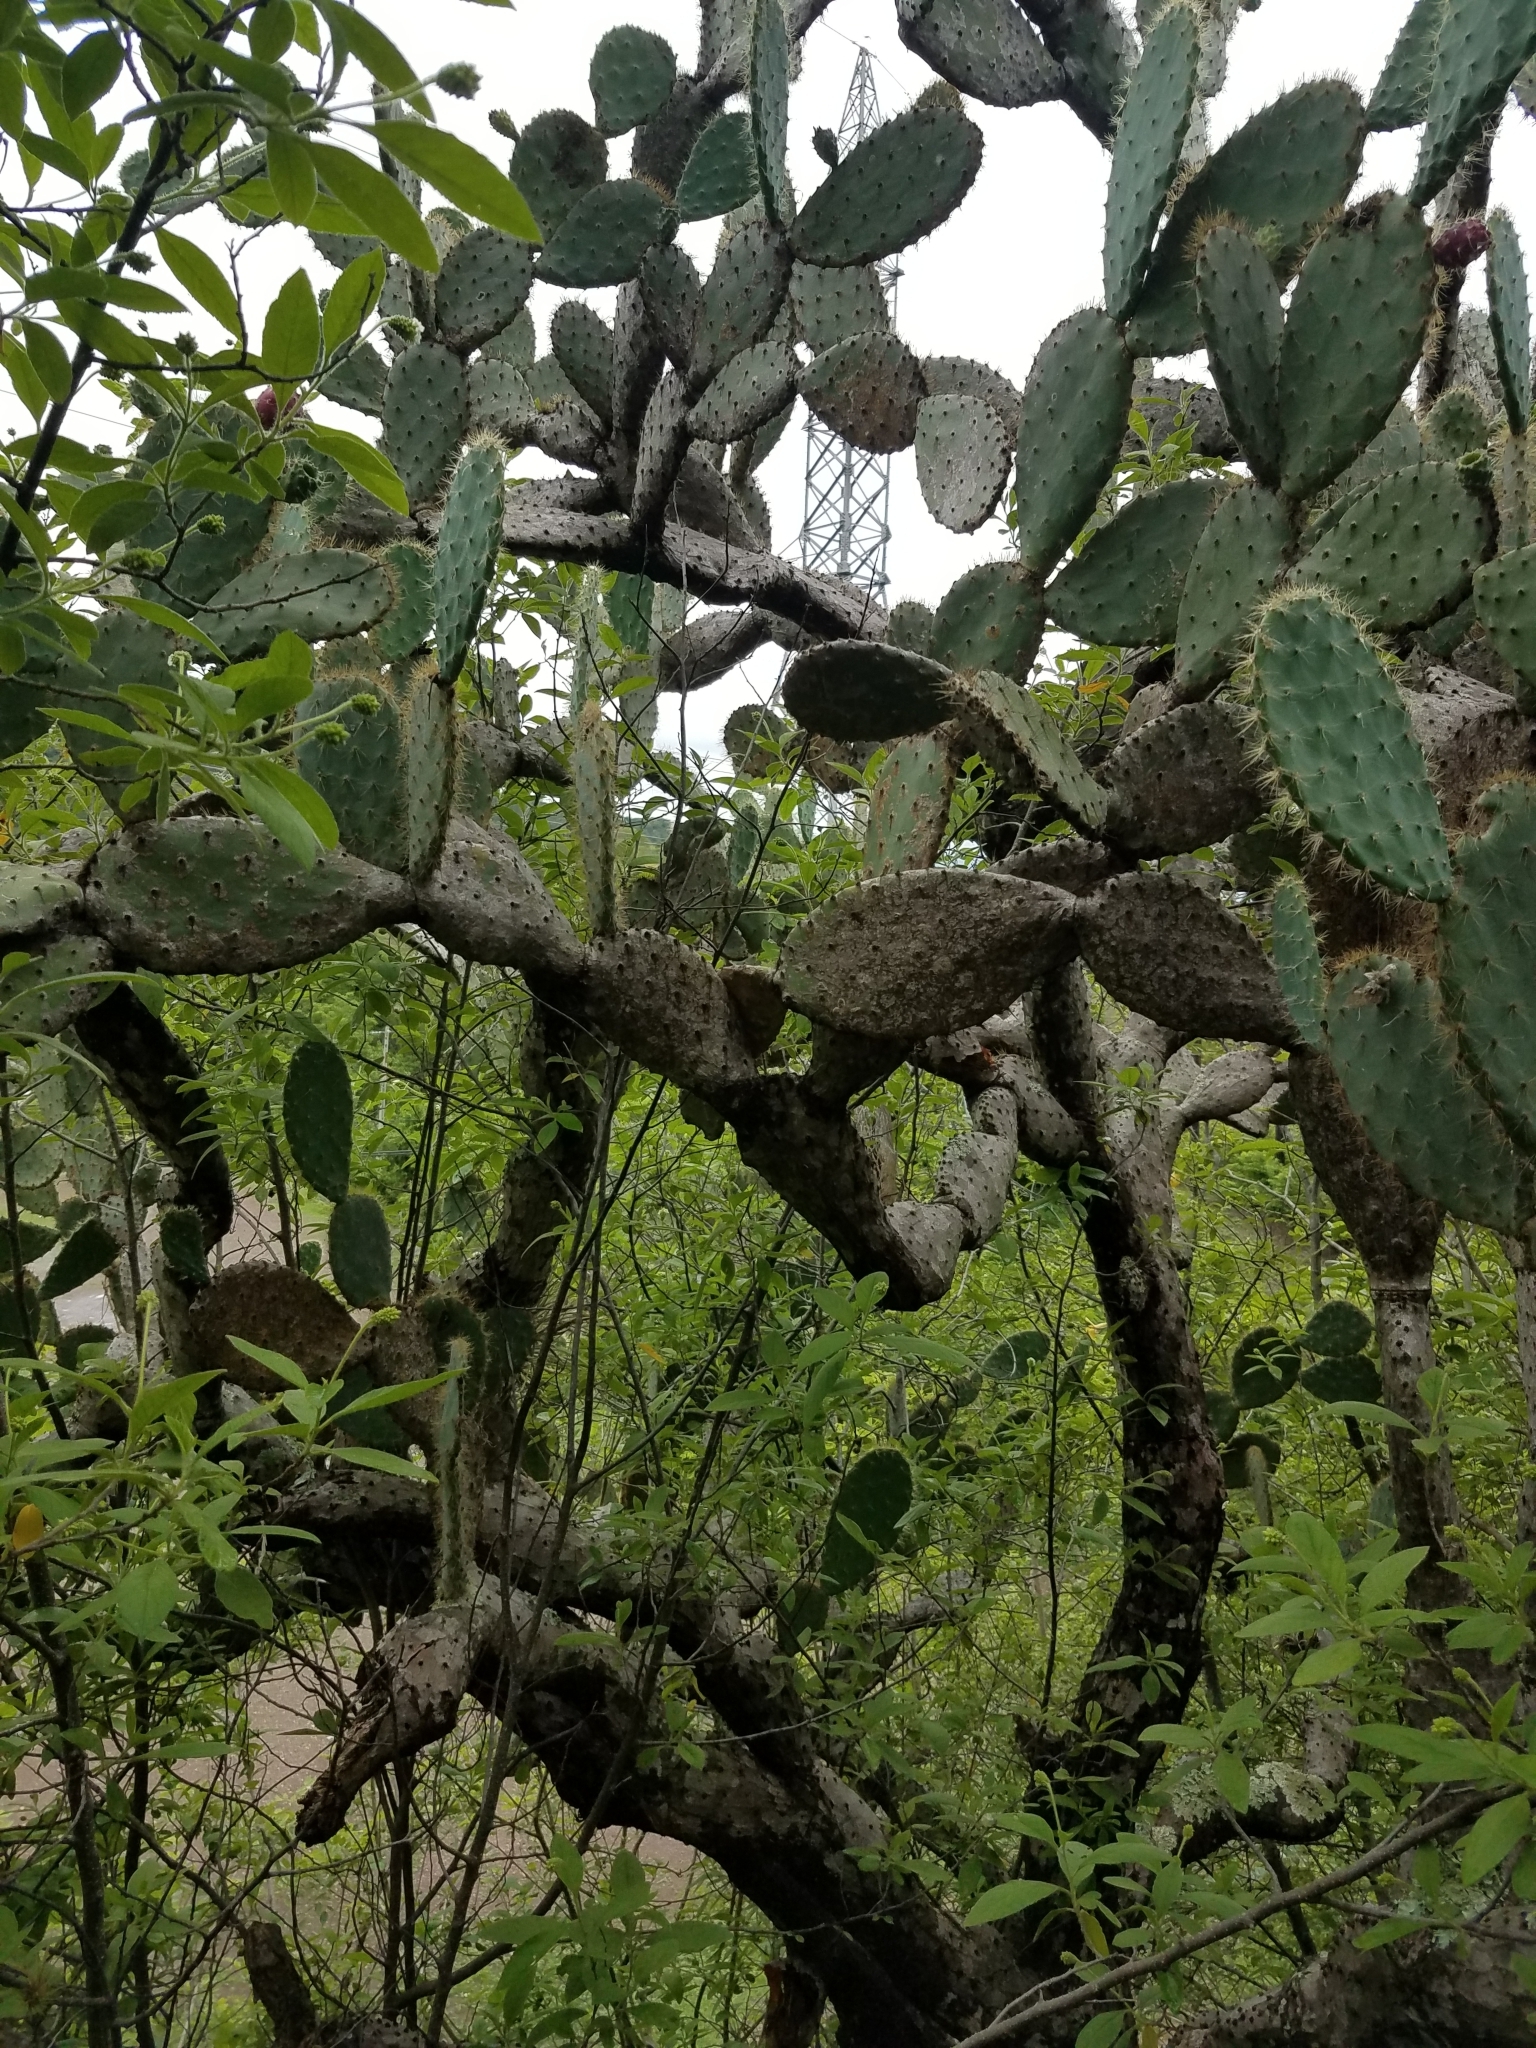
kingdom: Plantae
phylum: Tracheophyta
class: Magnoliopsida
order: Caryophyllales
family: Cactaceae
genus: Opuntia
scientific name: Opuntia lutea
